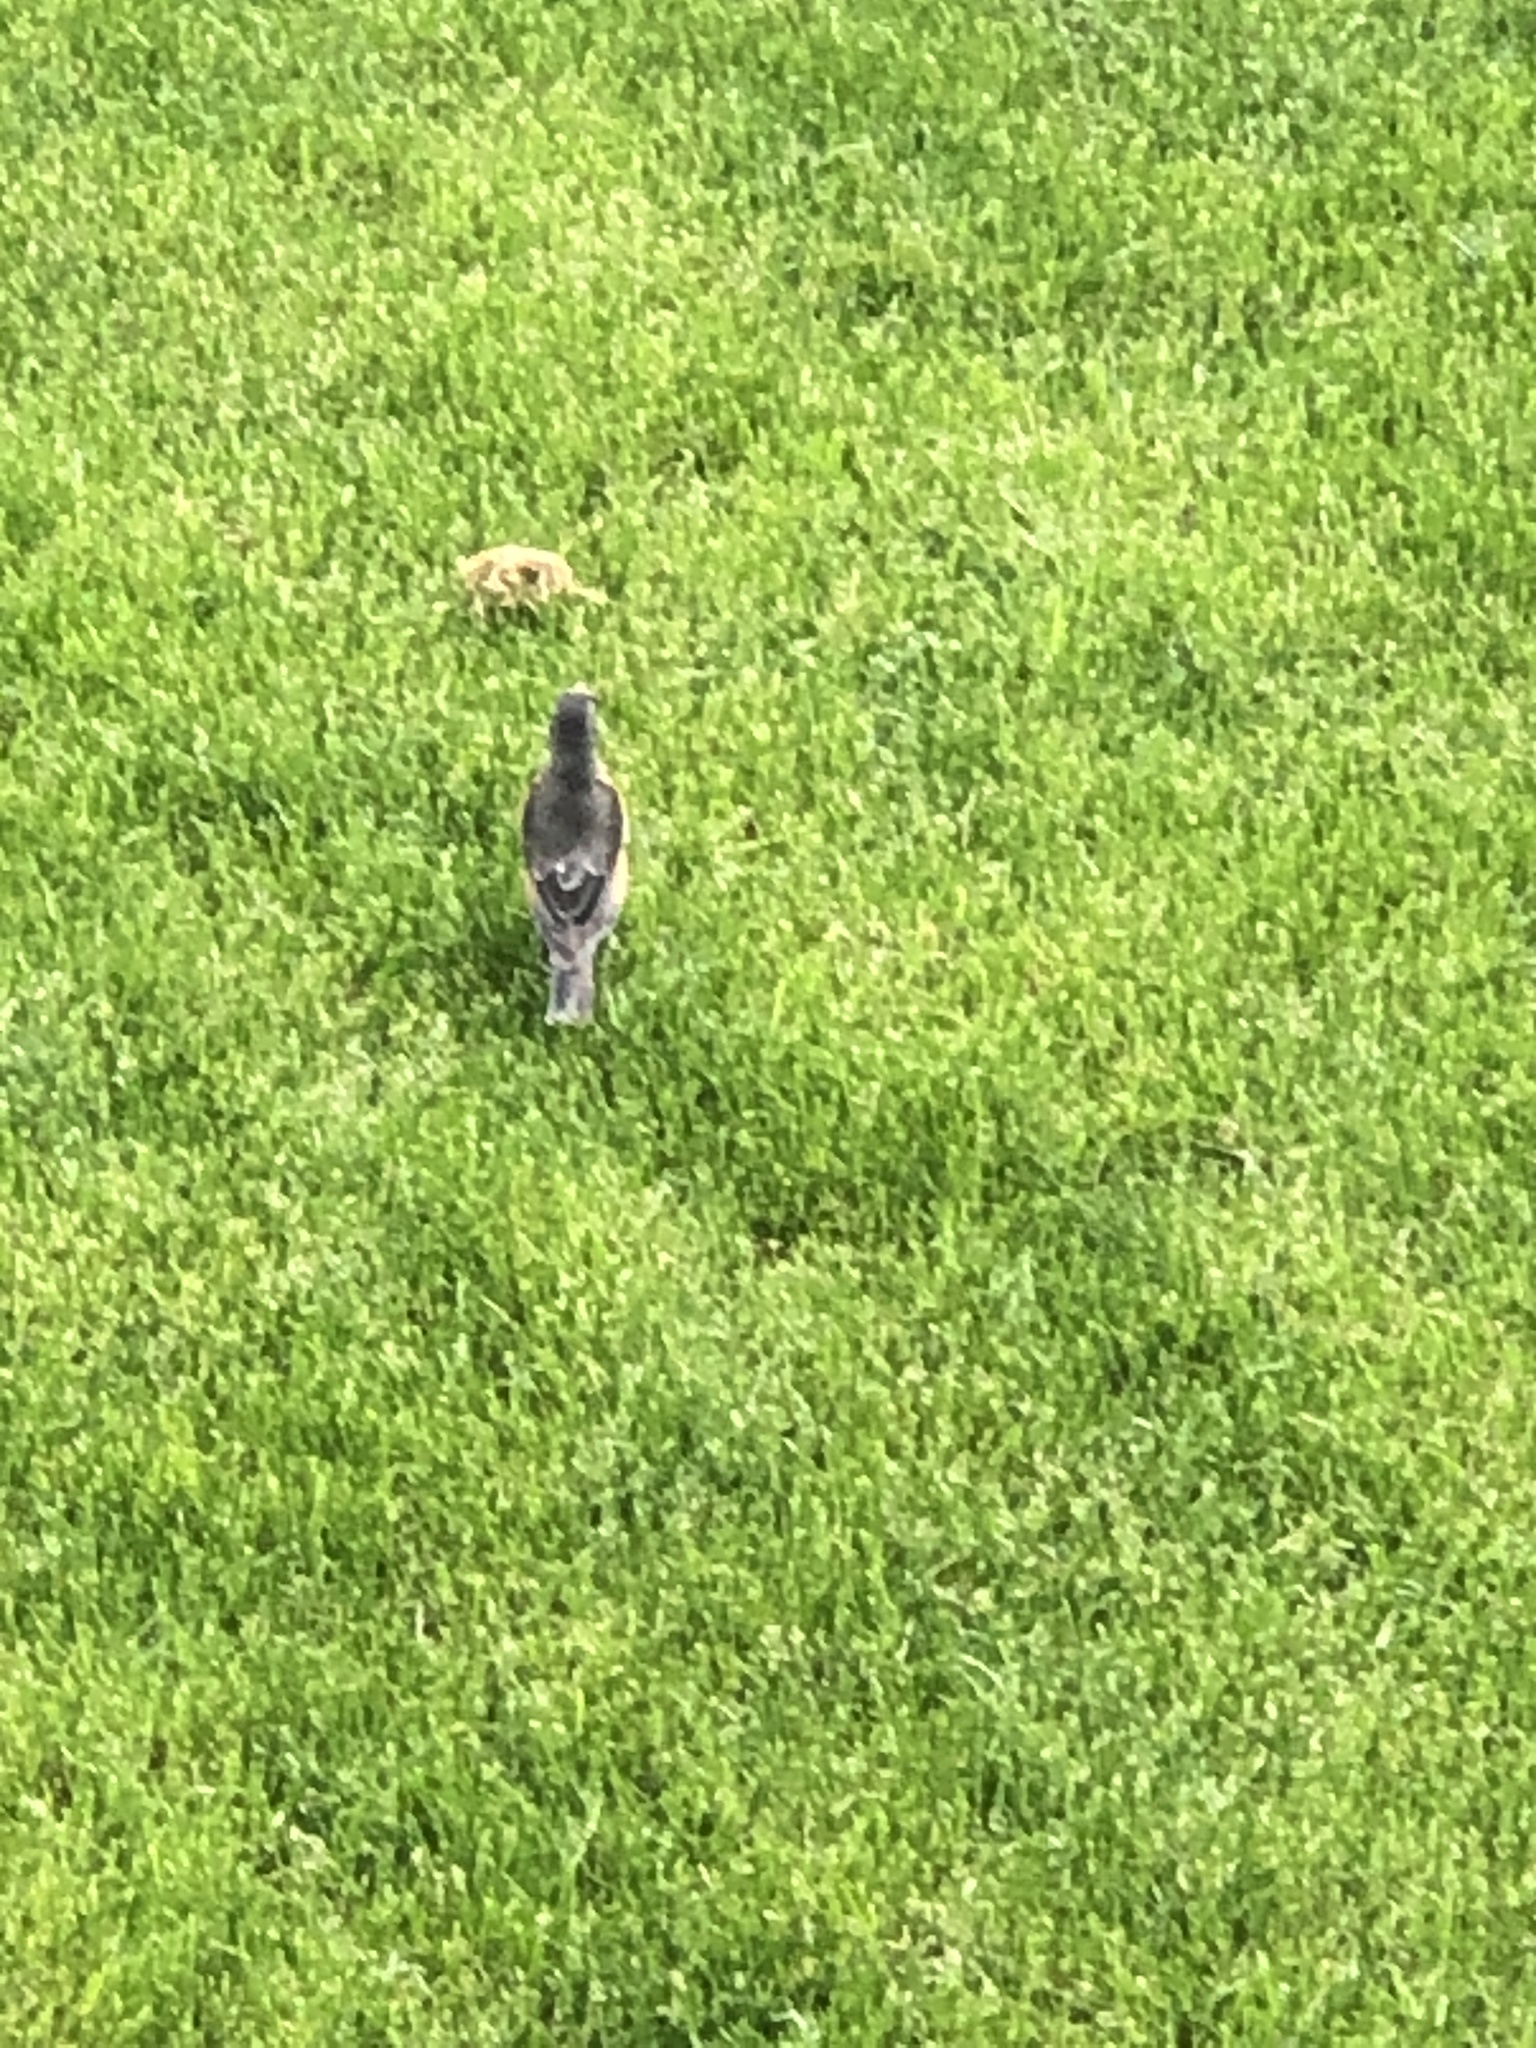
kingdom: Animalia
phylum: Chordata
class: Aves
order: Passeriformes
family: Turdidae
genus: Turdus
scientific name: Turdus migratorius
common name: American robin
